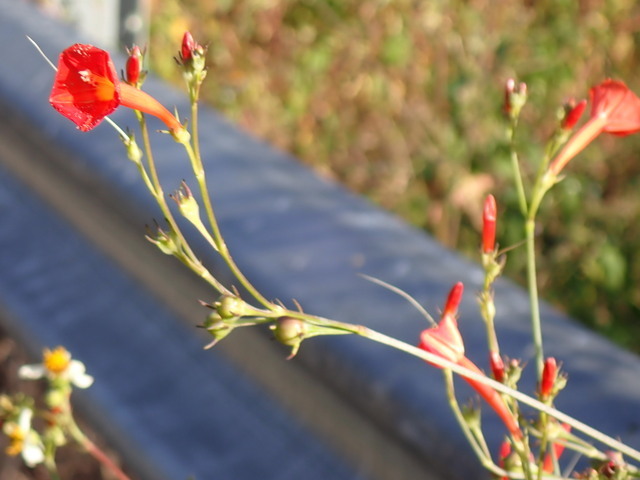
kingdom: Plantae
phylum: Tracheophyta
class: Magnoliopsida
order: Solanales
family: Convolvulaceae
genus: Ipomoea
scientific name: Ipomoea hederifolia
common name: Ivy-leaf morning-glory
